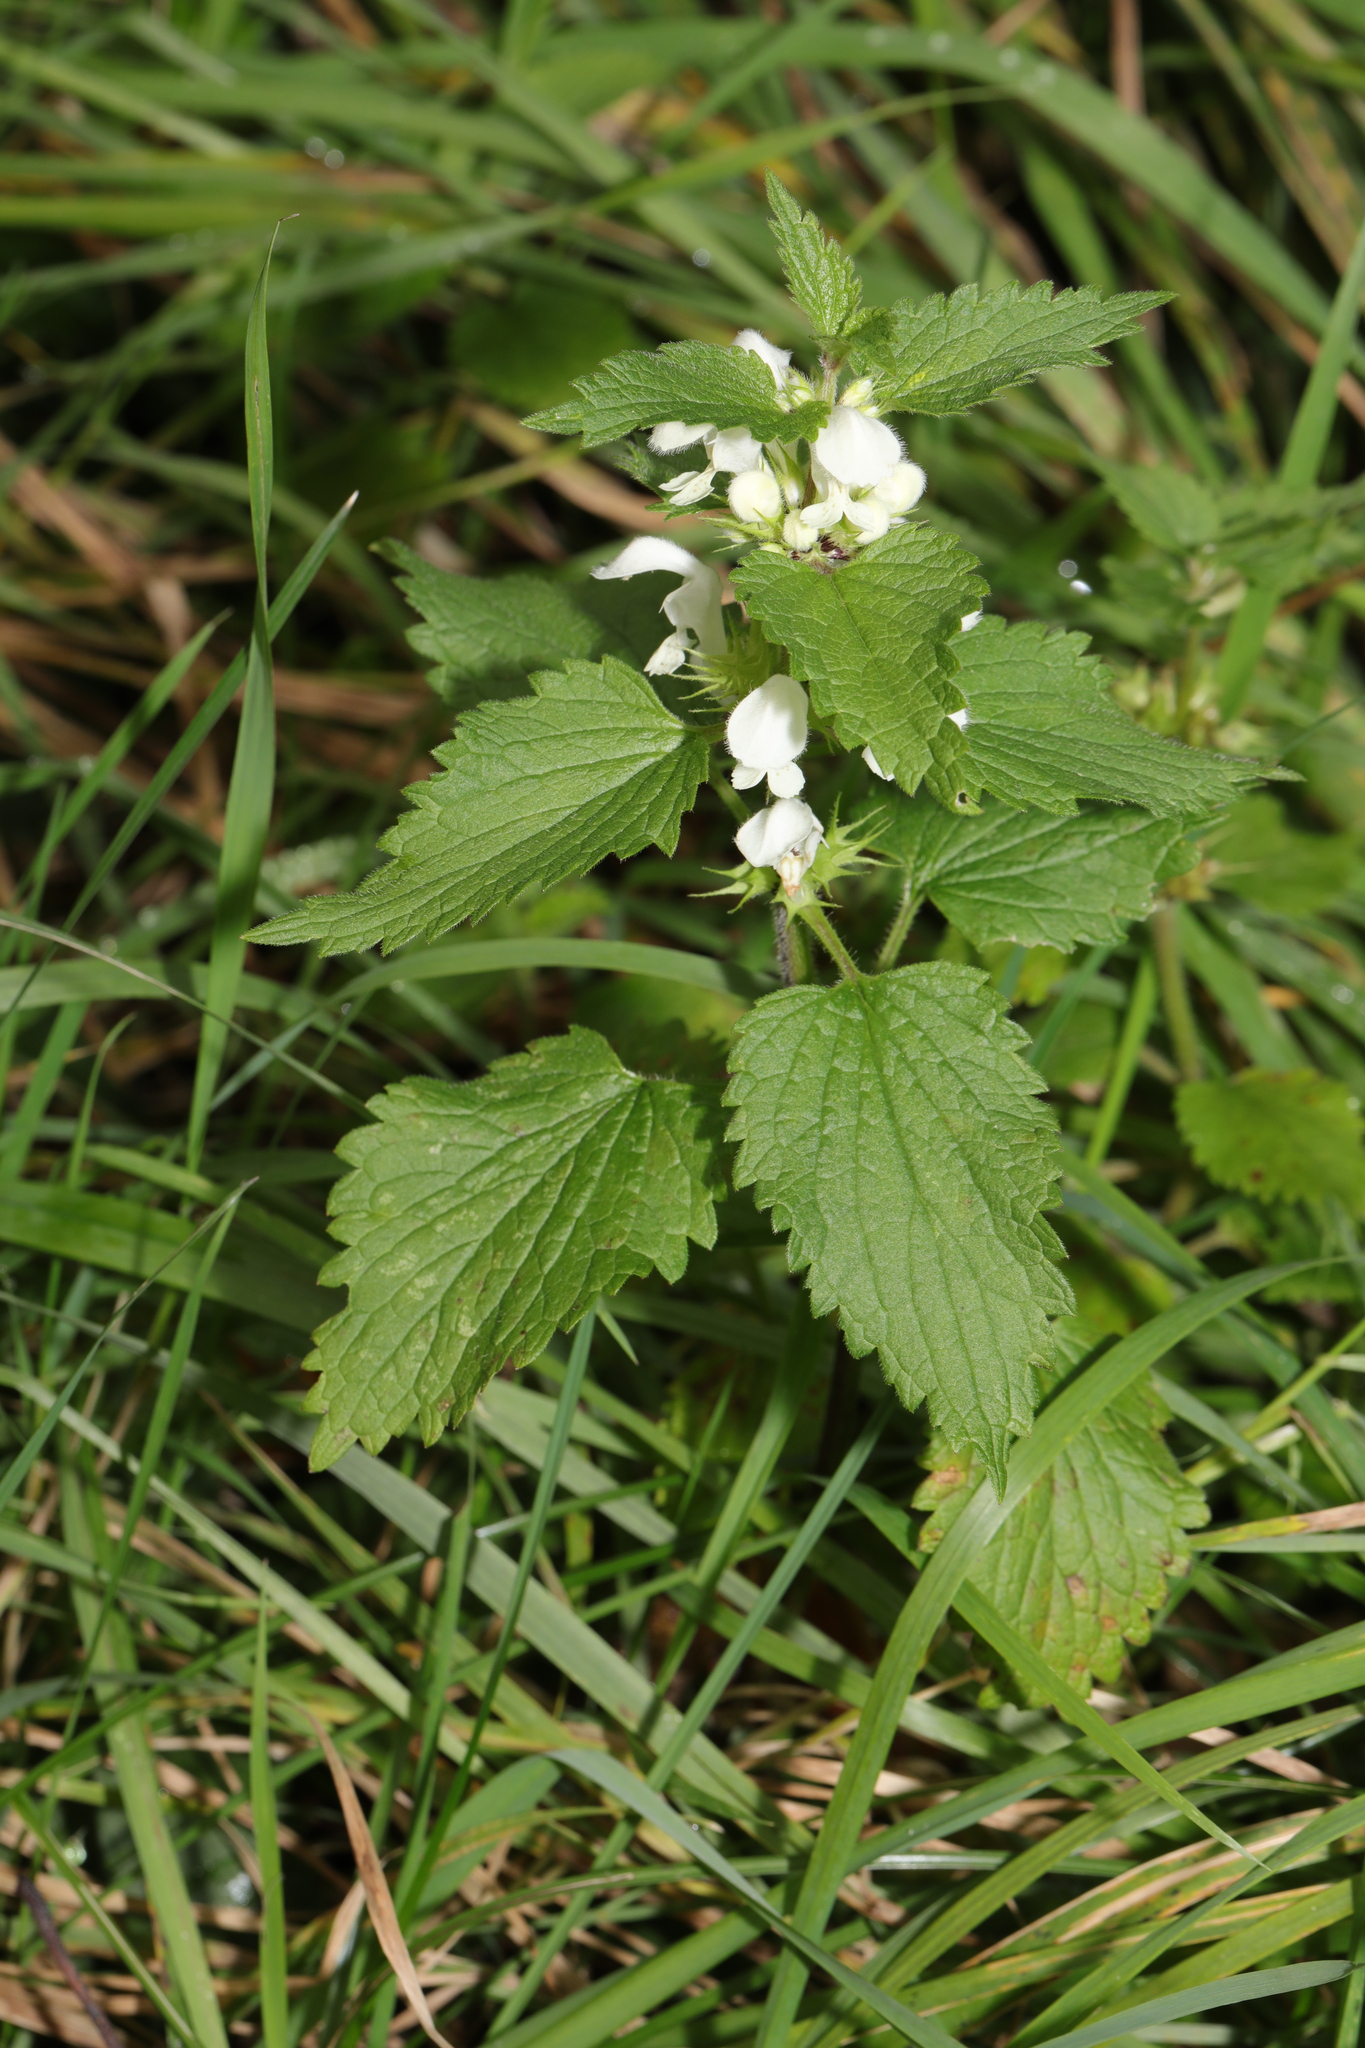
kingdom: Plantae
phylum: Tracheophyta
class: Magnoliopsida
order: Lamiales
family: Lamiaceae
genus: Lamium
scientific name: Lamium album
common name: White dead-nettle
